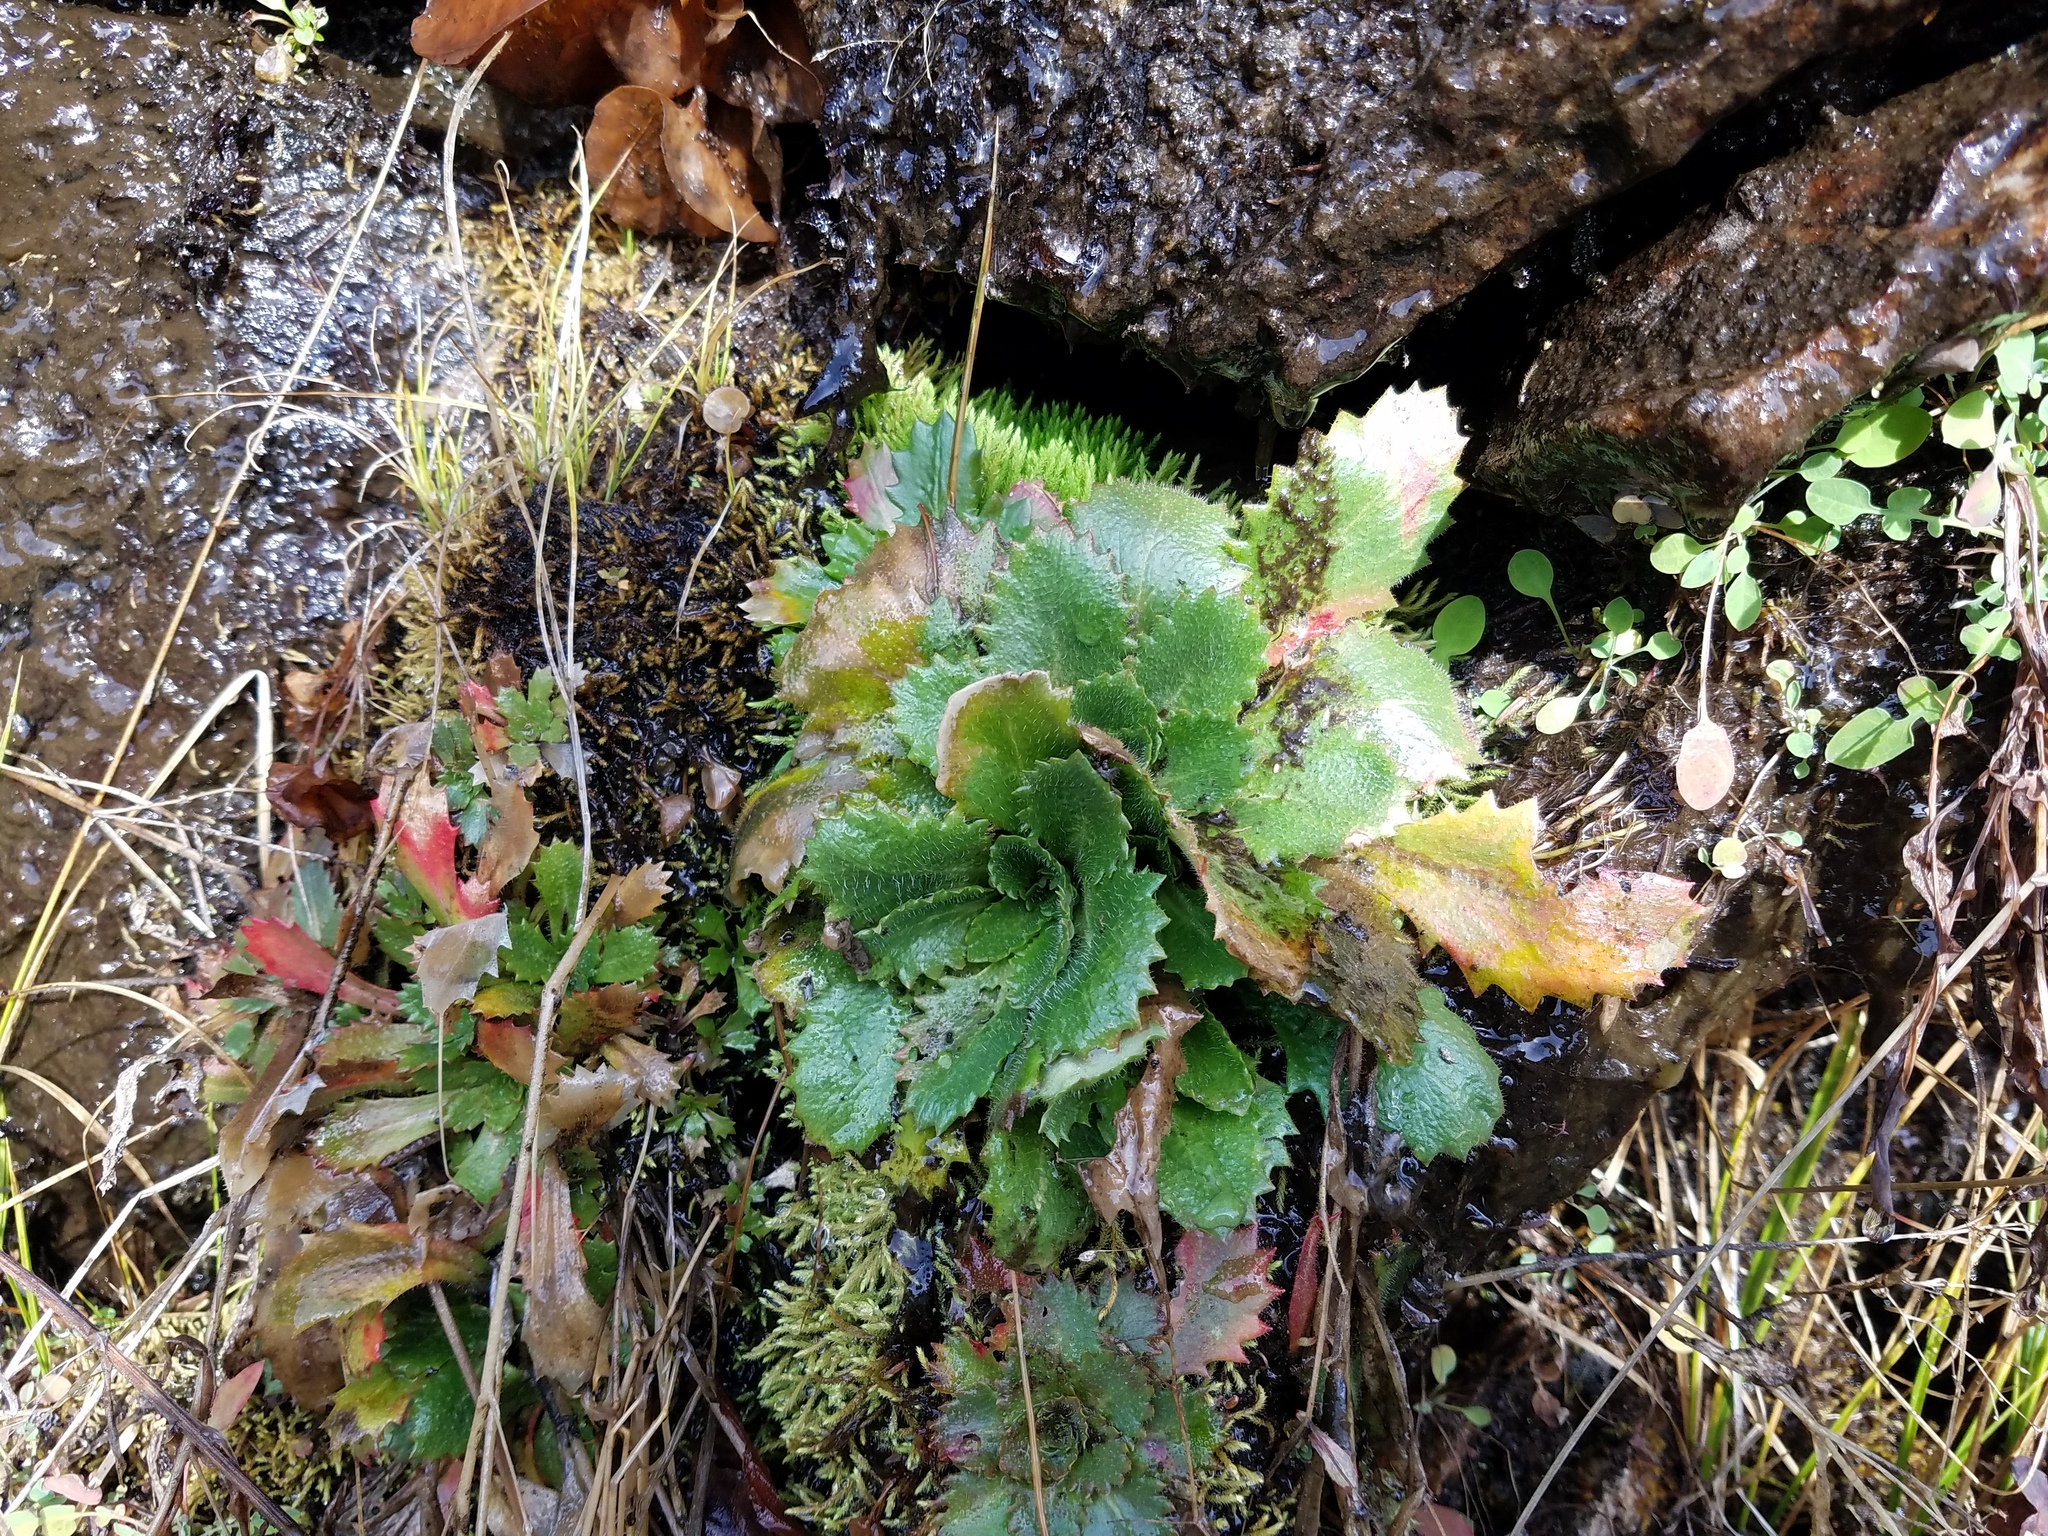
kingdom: Plantae
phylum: Tracheophyta
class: Magnoliopsida
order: Saxifragales
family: Saxifragaceae
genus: Micranthes
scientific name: Micranthes petiolaris
